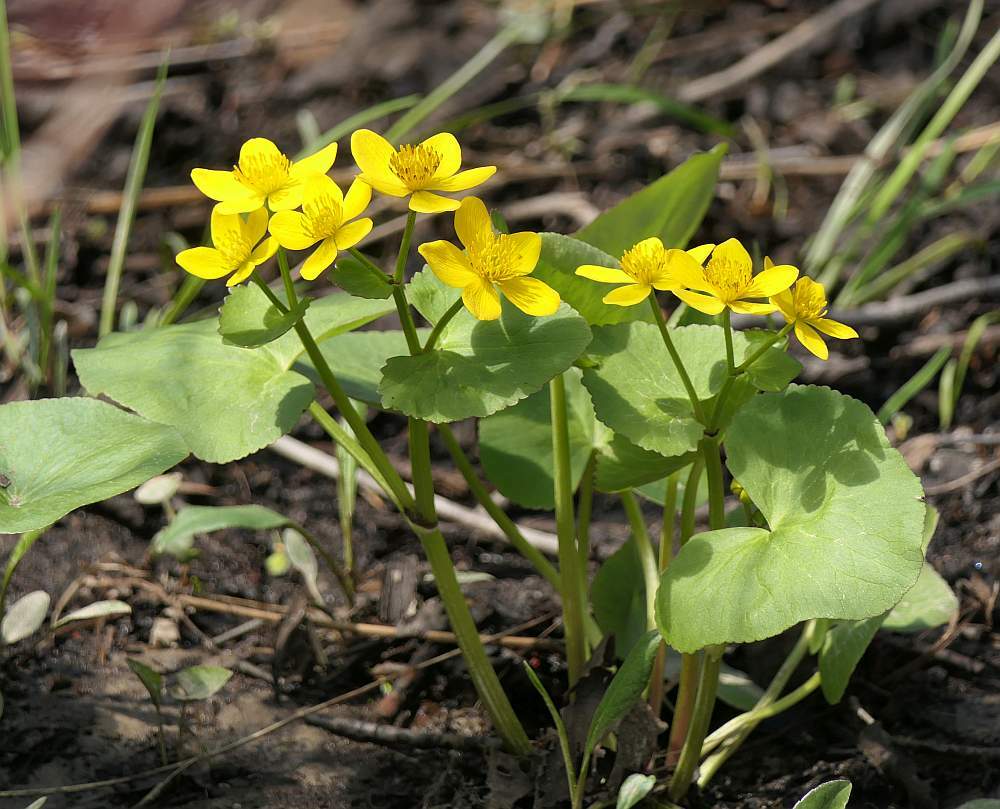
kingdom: Plantae
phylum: Tracheophyta
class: Magnoliopsida
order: Ranunculales
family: Ranunculaceae
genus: Caltha
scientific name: Caltha palustris
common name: Marsh marigold
